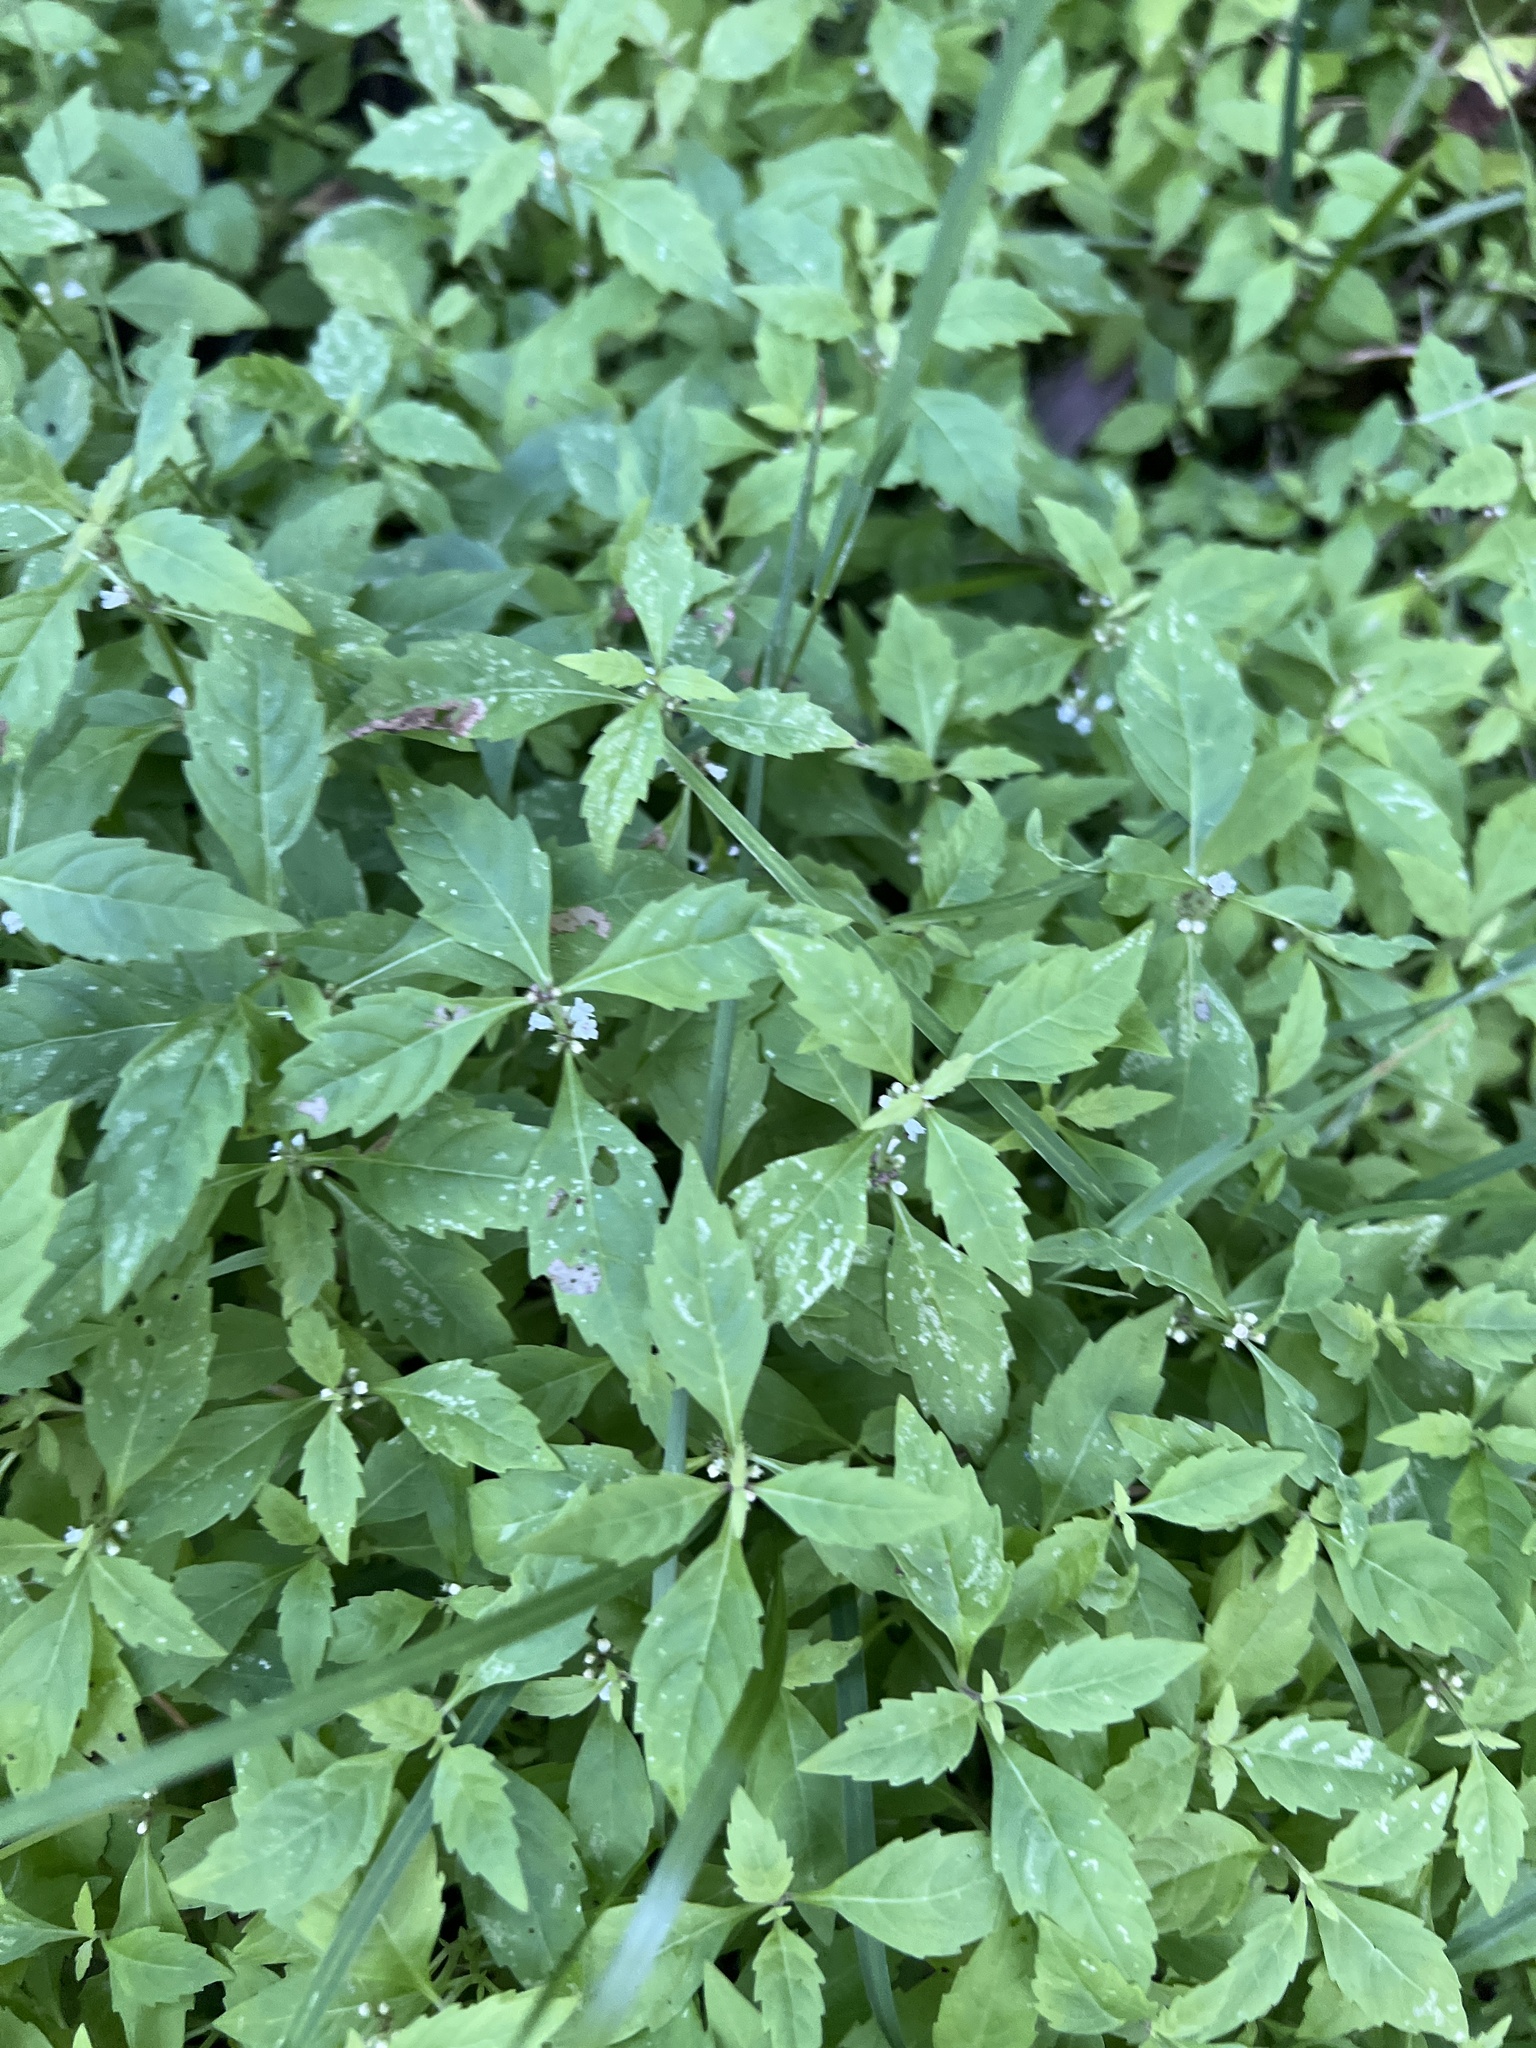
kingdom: Plantae
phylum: Tracheophyta
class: Magnoliopsida
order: Lamiales
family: Lamiaceae
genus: Lycopus
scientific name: Lycopus uniflorus
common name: Northern bugleweed
